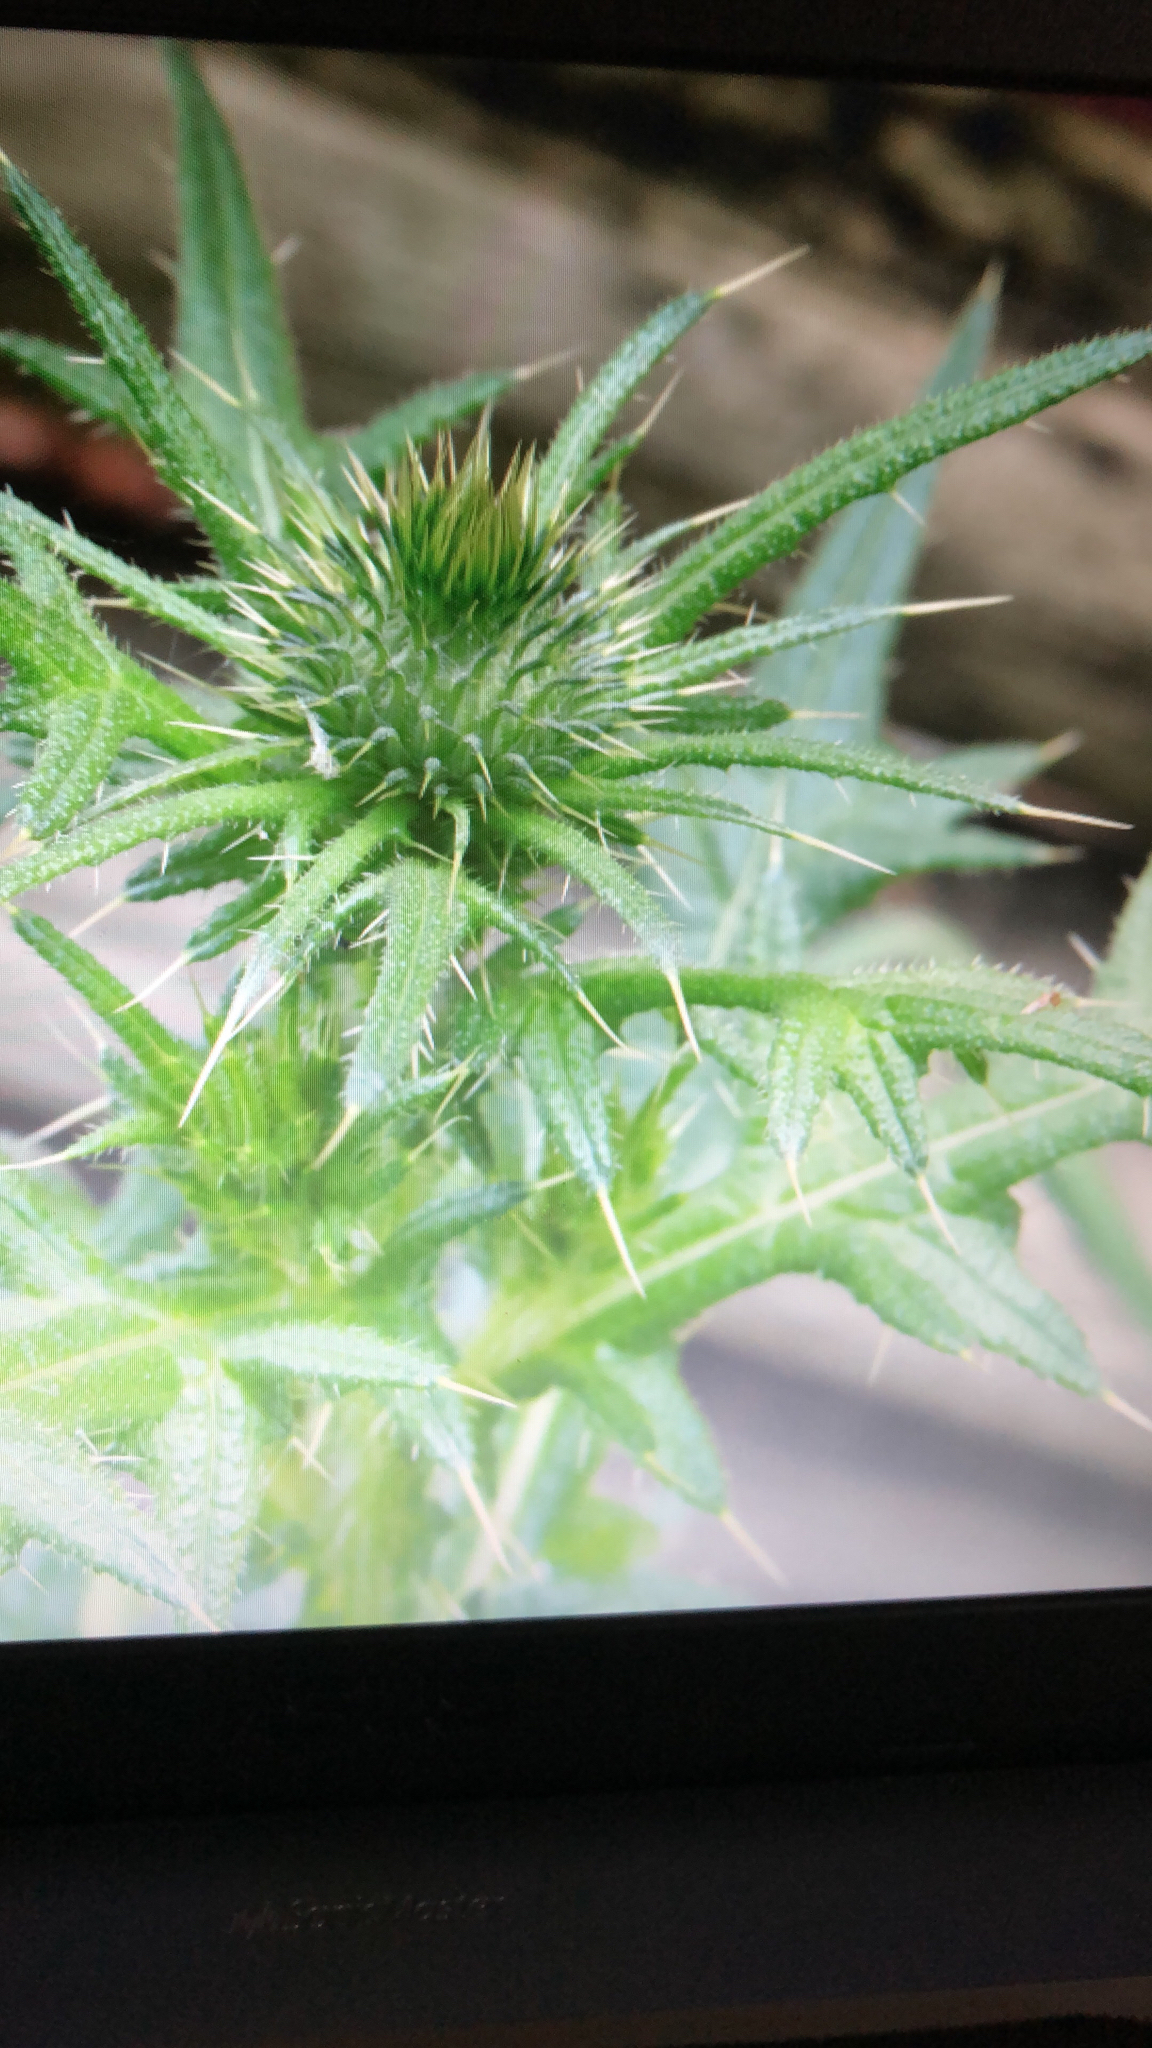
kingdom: Plantae
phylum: Tracheophyta
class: Magnoliopsida
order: Asterales
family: Asteraceae
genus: Cirsium
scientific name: Cirsium vulgare
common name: Bull thistle
